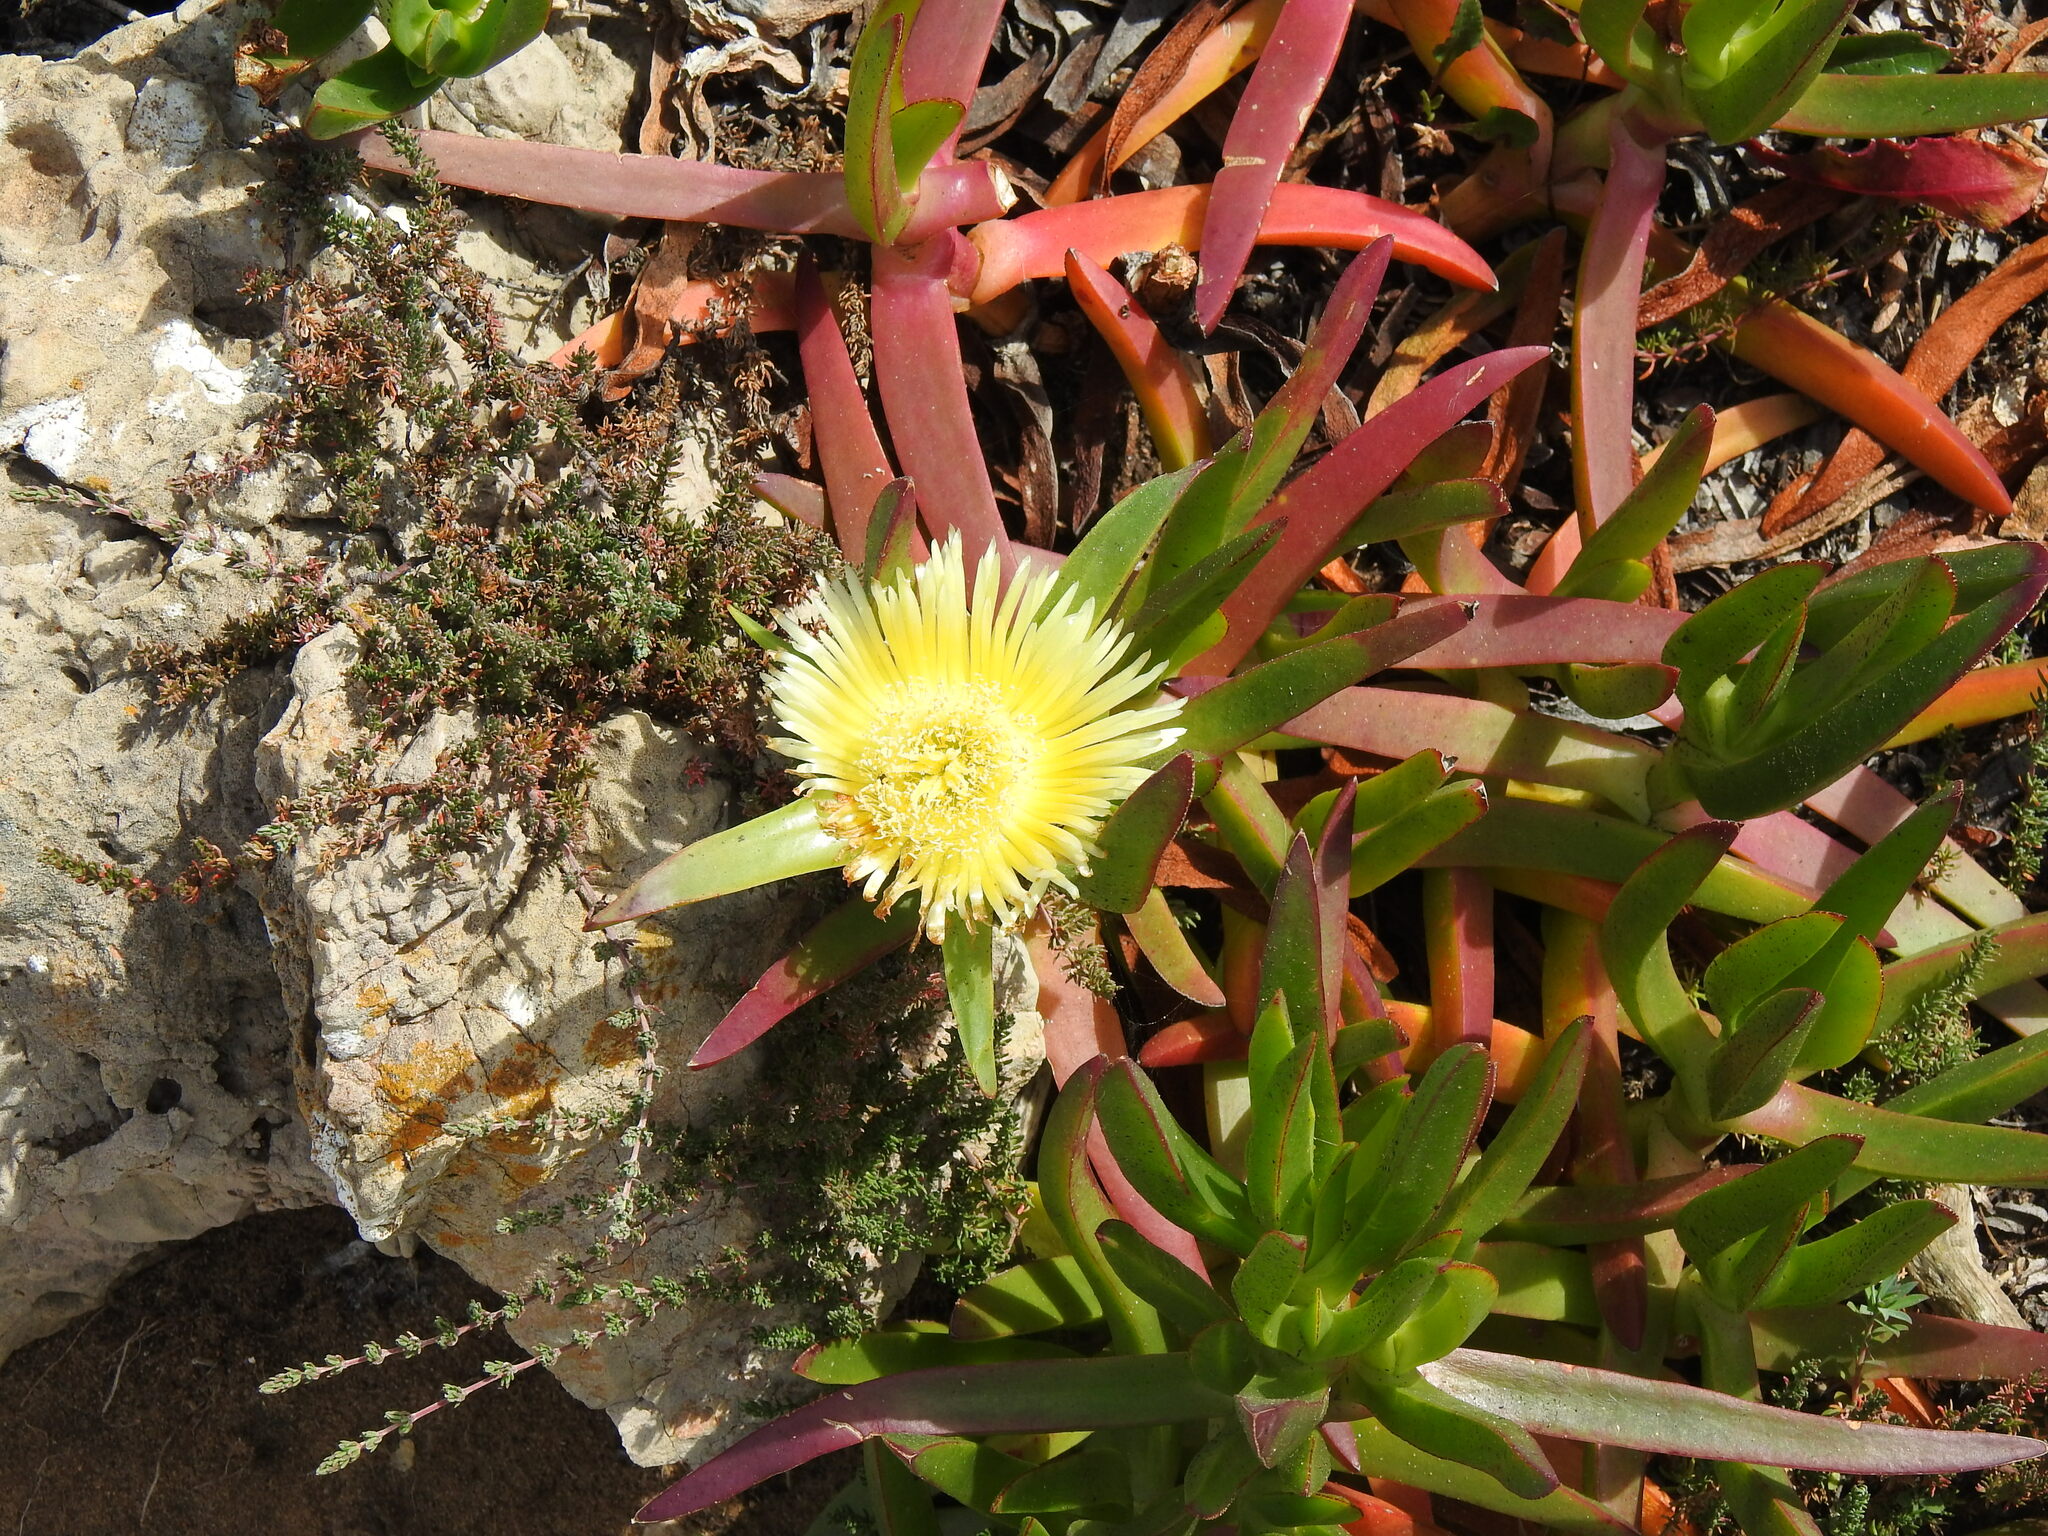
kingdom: Plantae
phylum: Tracheophyta
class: Magnoliopsida
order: Caryophyllales
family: Aizoaceae
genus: Carpobrotus
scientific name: Carpobrotus edulis
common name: Hottentot-fig
